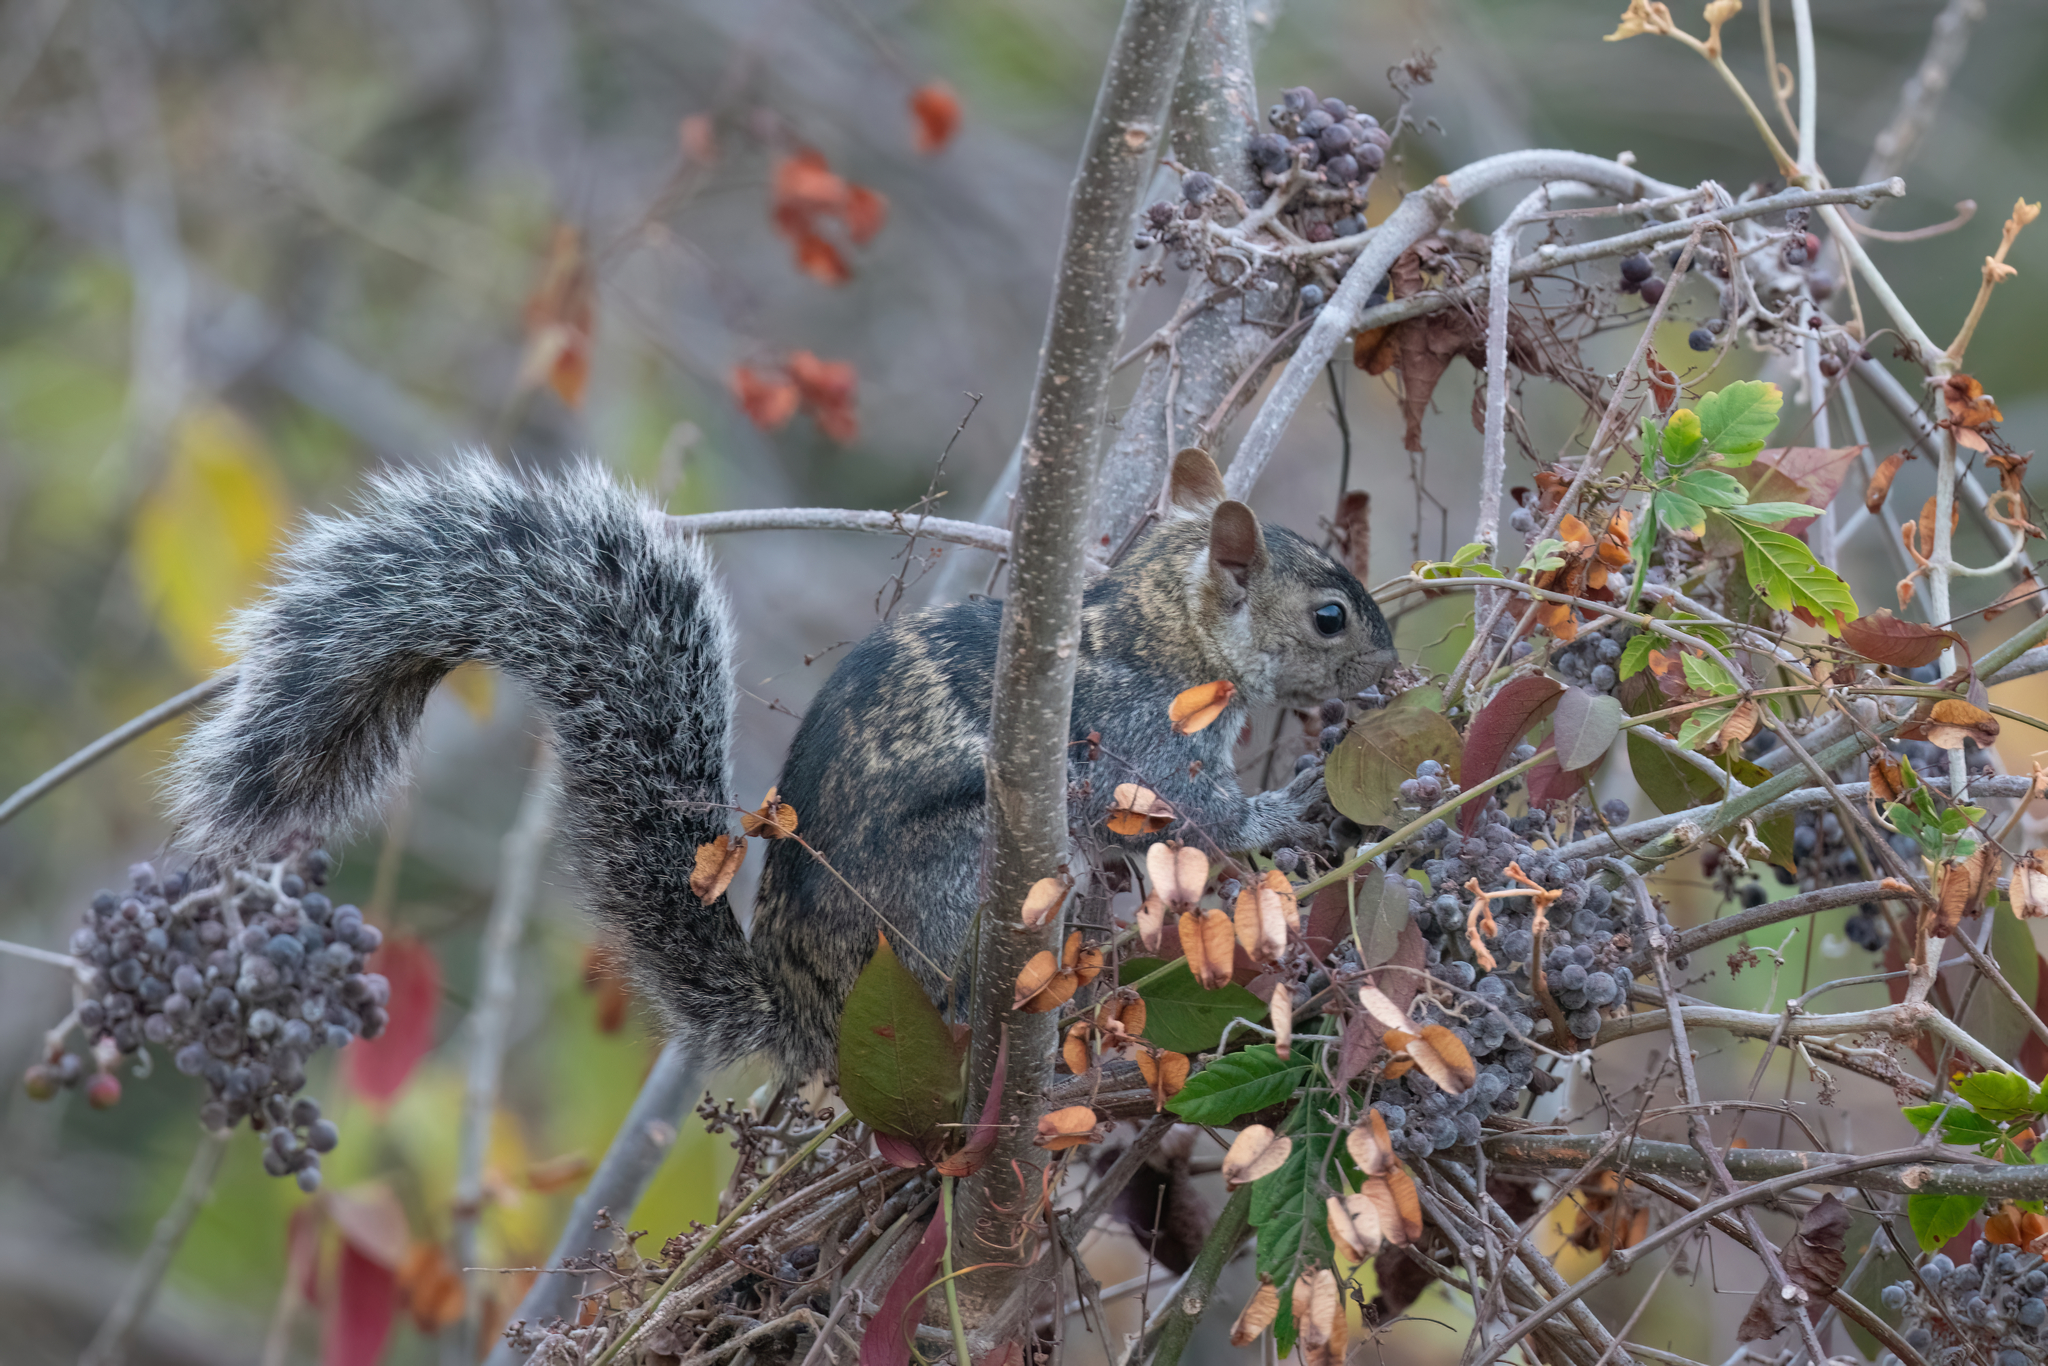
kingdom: Animalia
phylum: Chordata
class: Mammalia
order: Rodentia
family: Sciuridae
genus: Sciurus
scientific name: Sciurus colliaei
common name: Collie's squirrel
